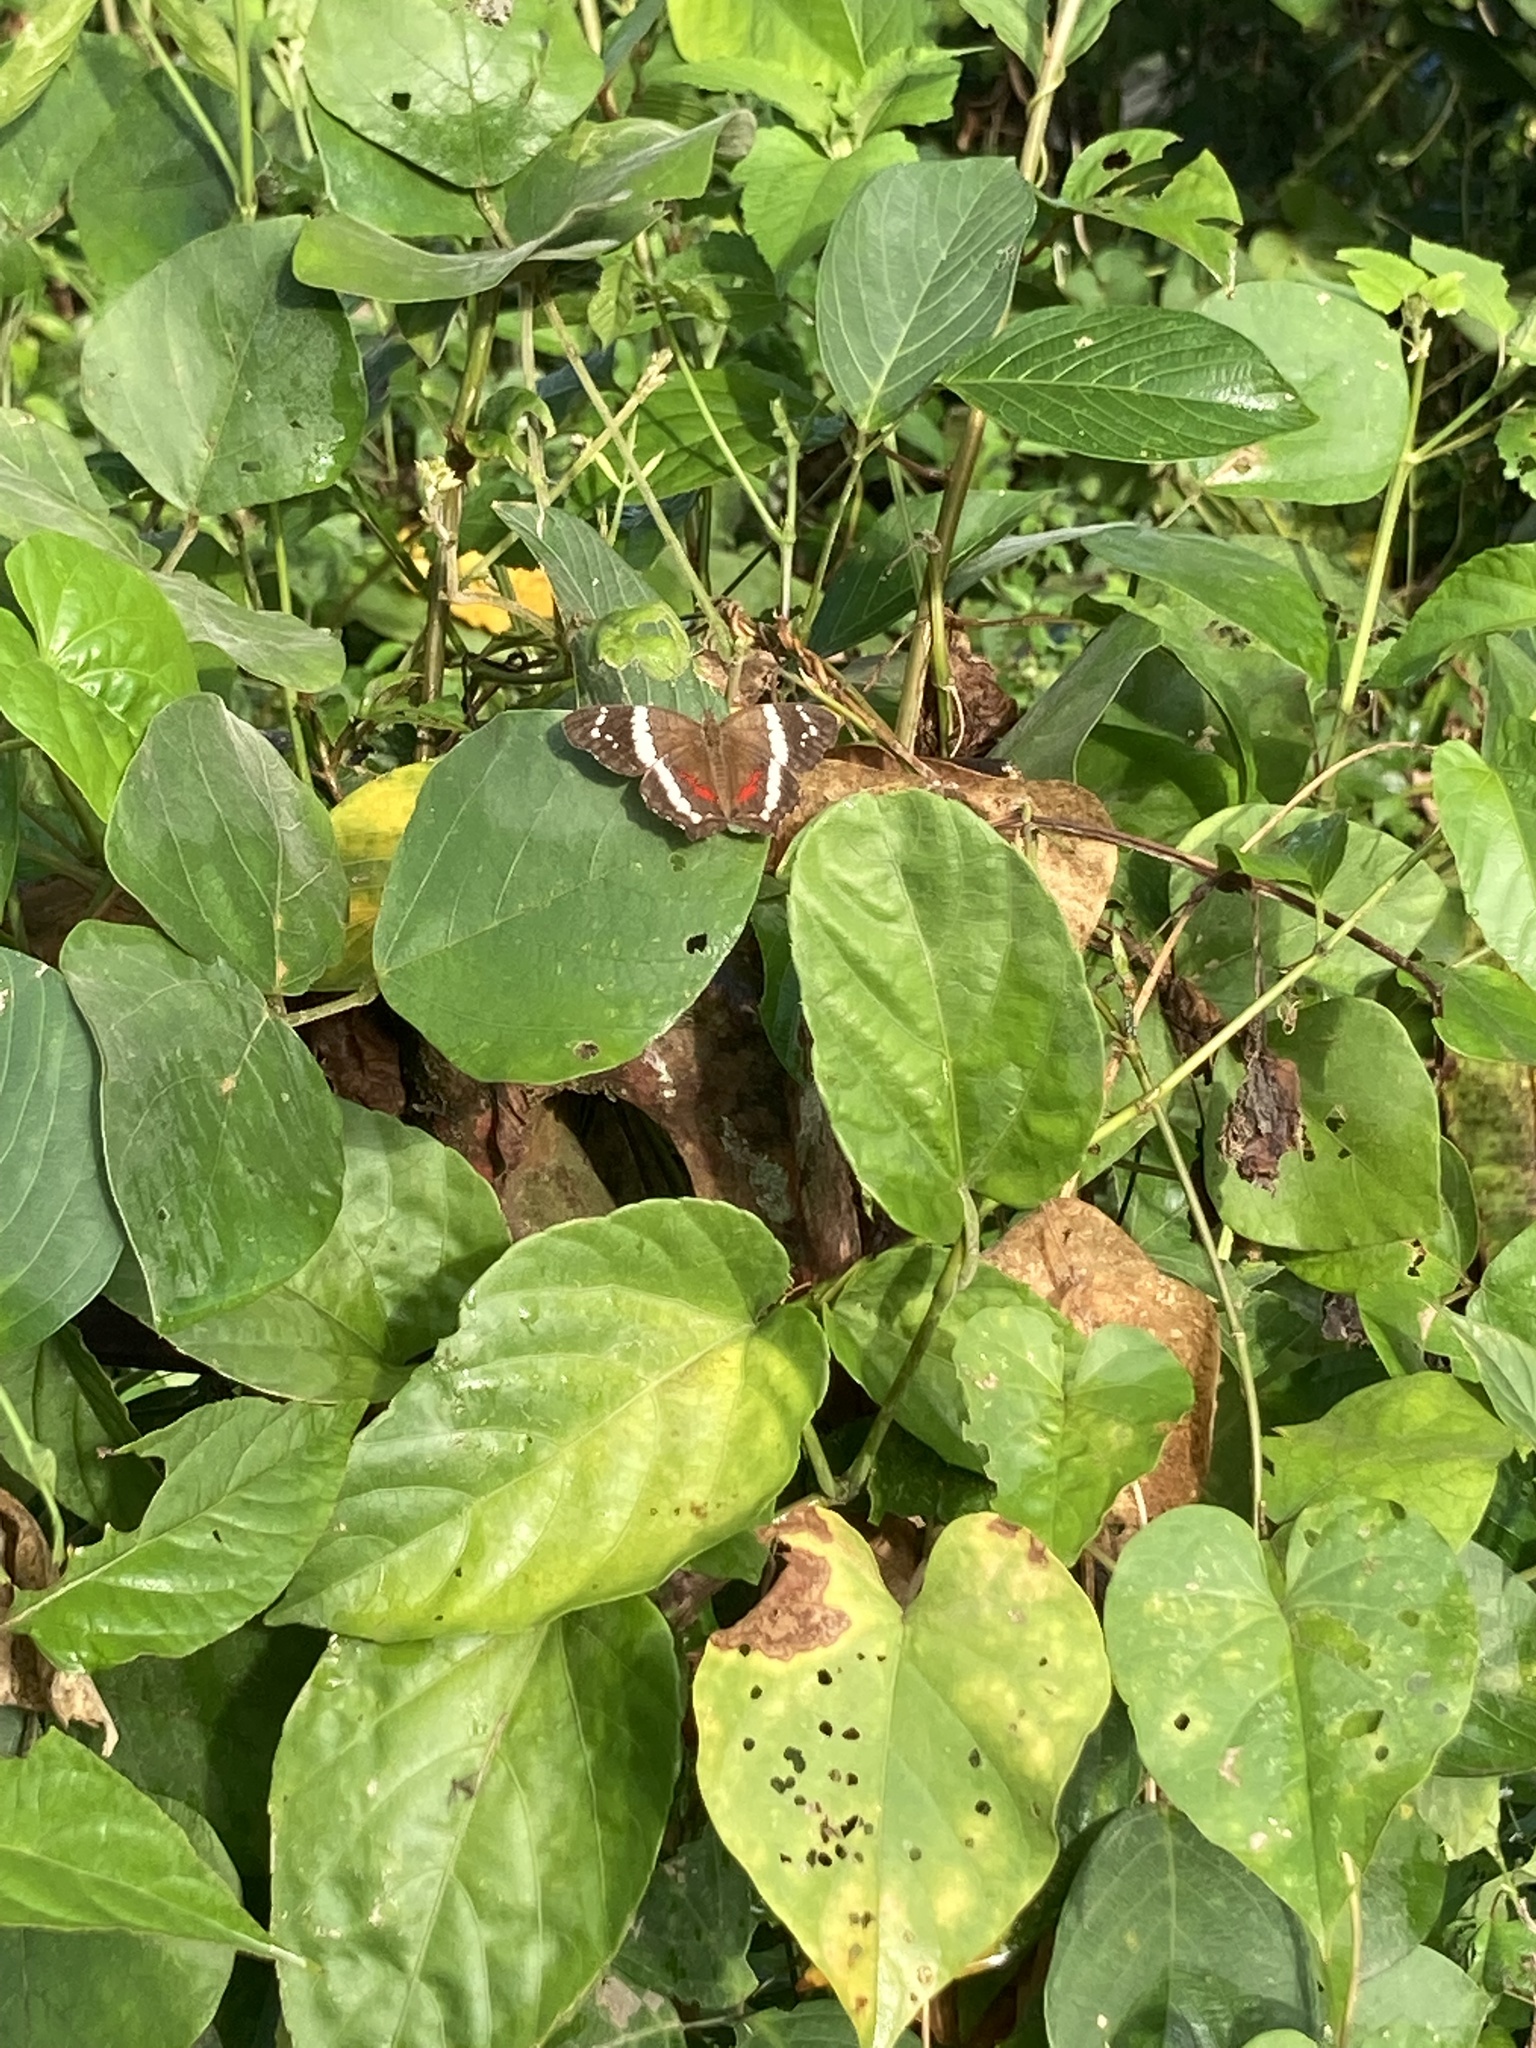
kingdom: Animalia
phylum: Arthropoda
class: Insecta
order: Lepidoptera
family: Nymphalidae
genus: Anartia
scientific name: Anartia fatima
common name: Banded peacock
